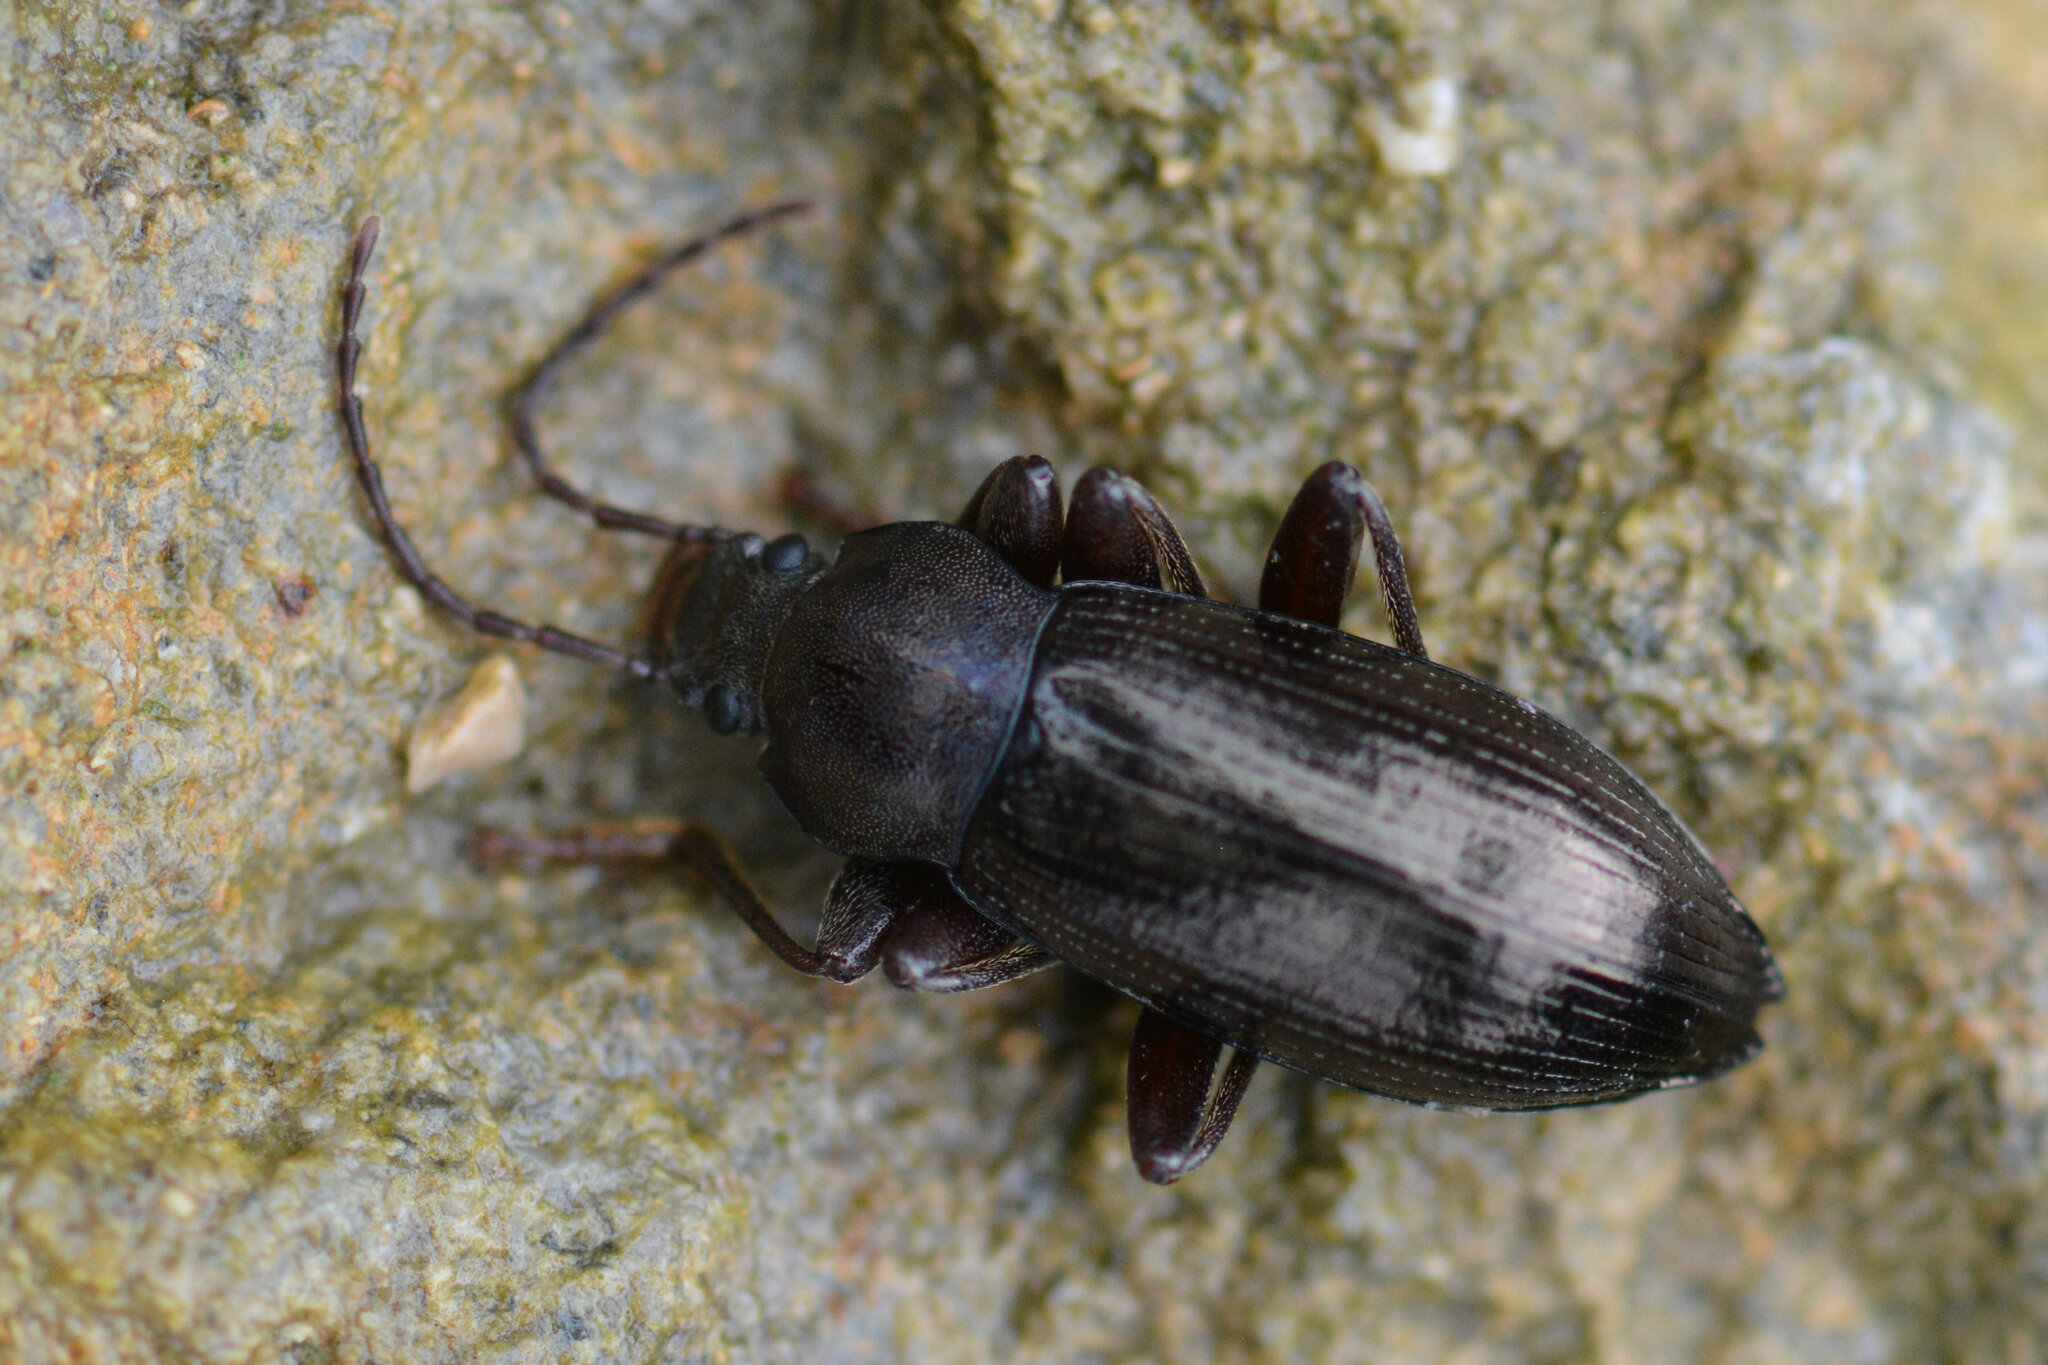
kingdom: Animalia
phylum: Arthropoda
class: Insecta
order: Coleoptera
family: Tenebrionidae
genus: Stenomax
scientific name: Stenomax aeneus
